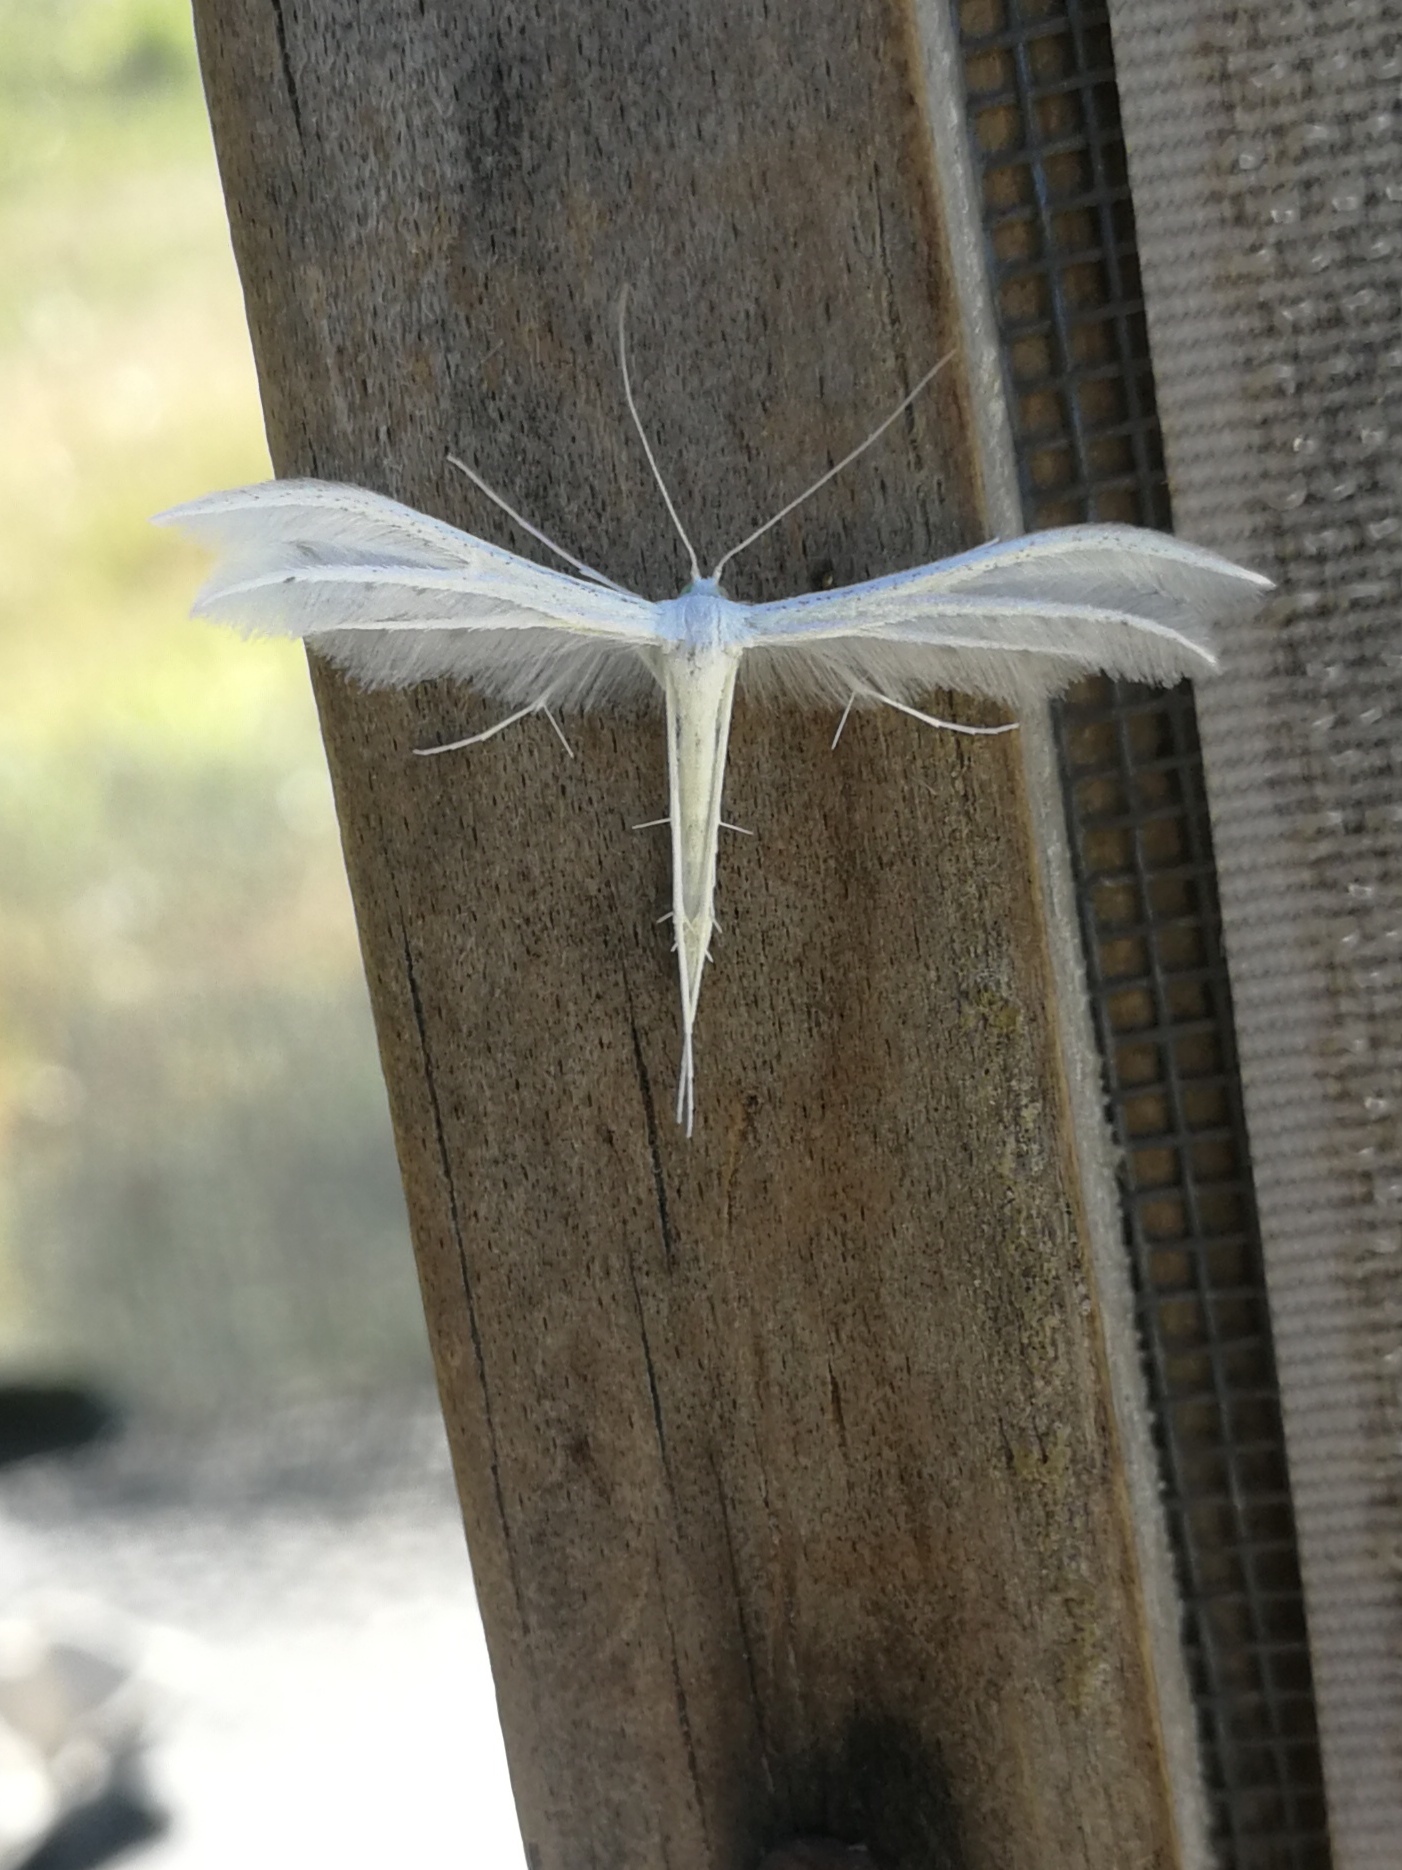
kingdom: Animalia
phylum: Arthropoda
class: Insecta
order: Lepidoptera
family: Pterophoridae
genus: Pterophorus
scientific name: Pterophorus pentadactyla
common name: White plume moth
